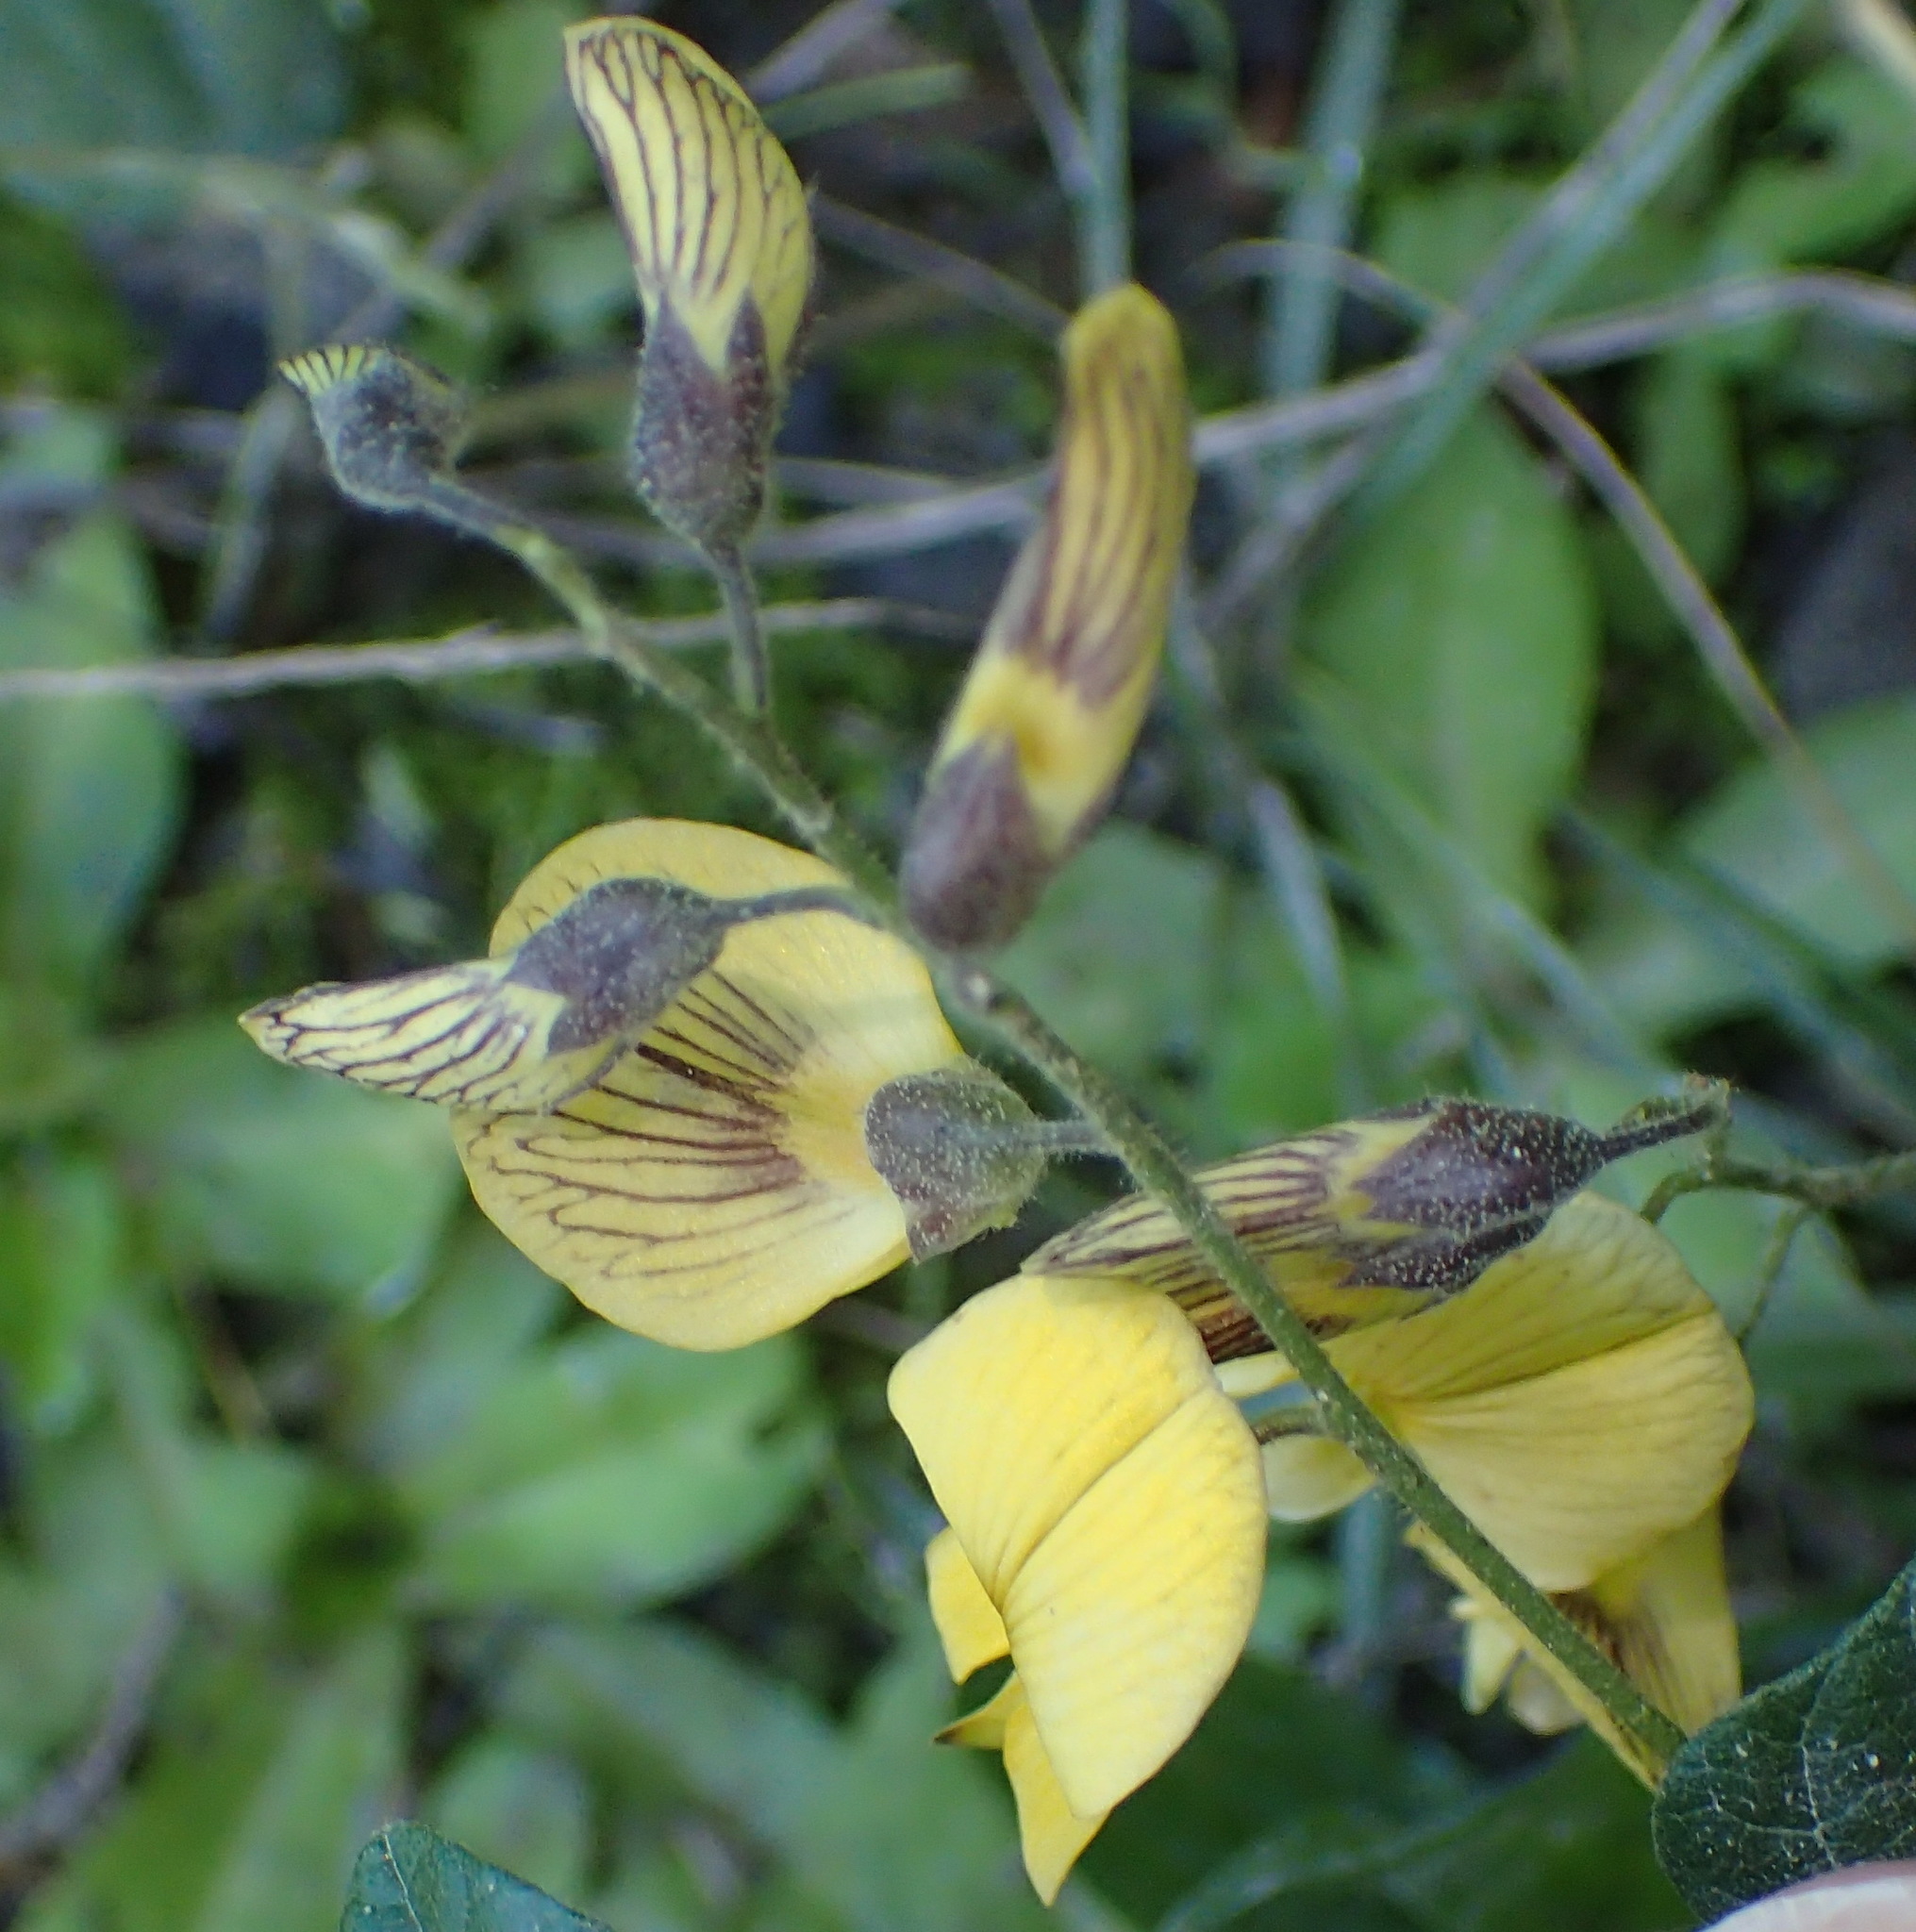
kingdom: Plantae
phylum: Tracheophyta
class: Magnoliopsida
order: Fabales
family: Fabaceae
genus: Rhynchosia
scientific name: Rhynchosia caribaea
